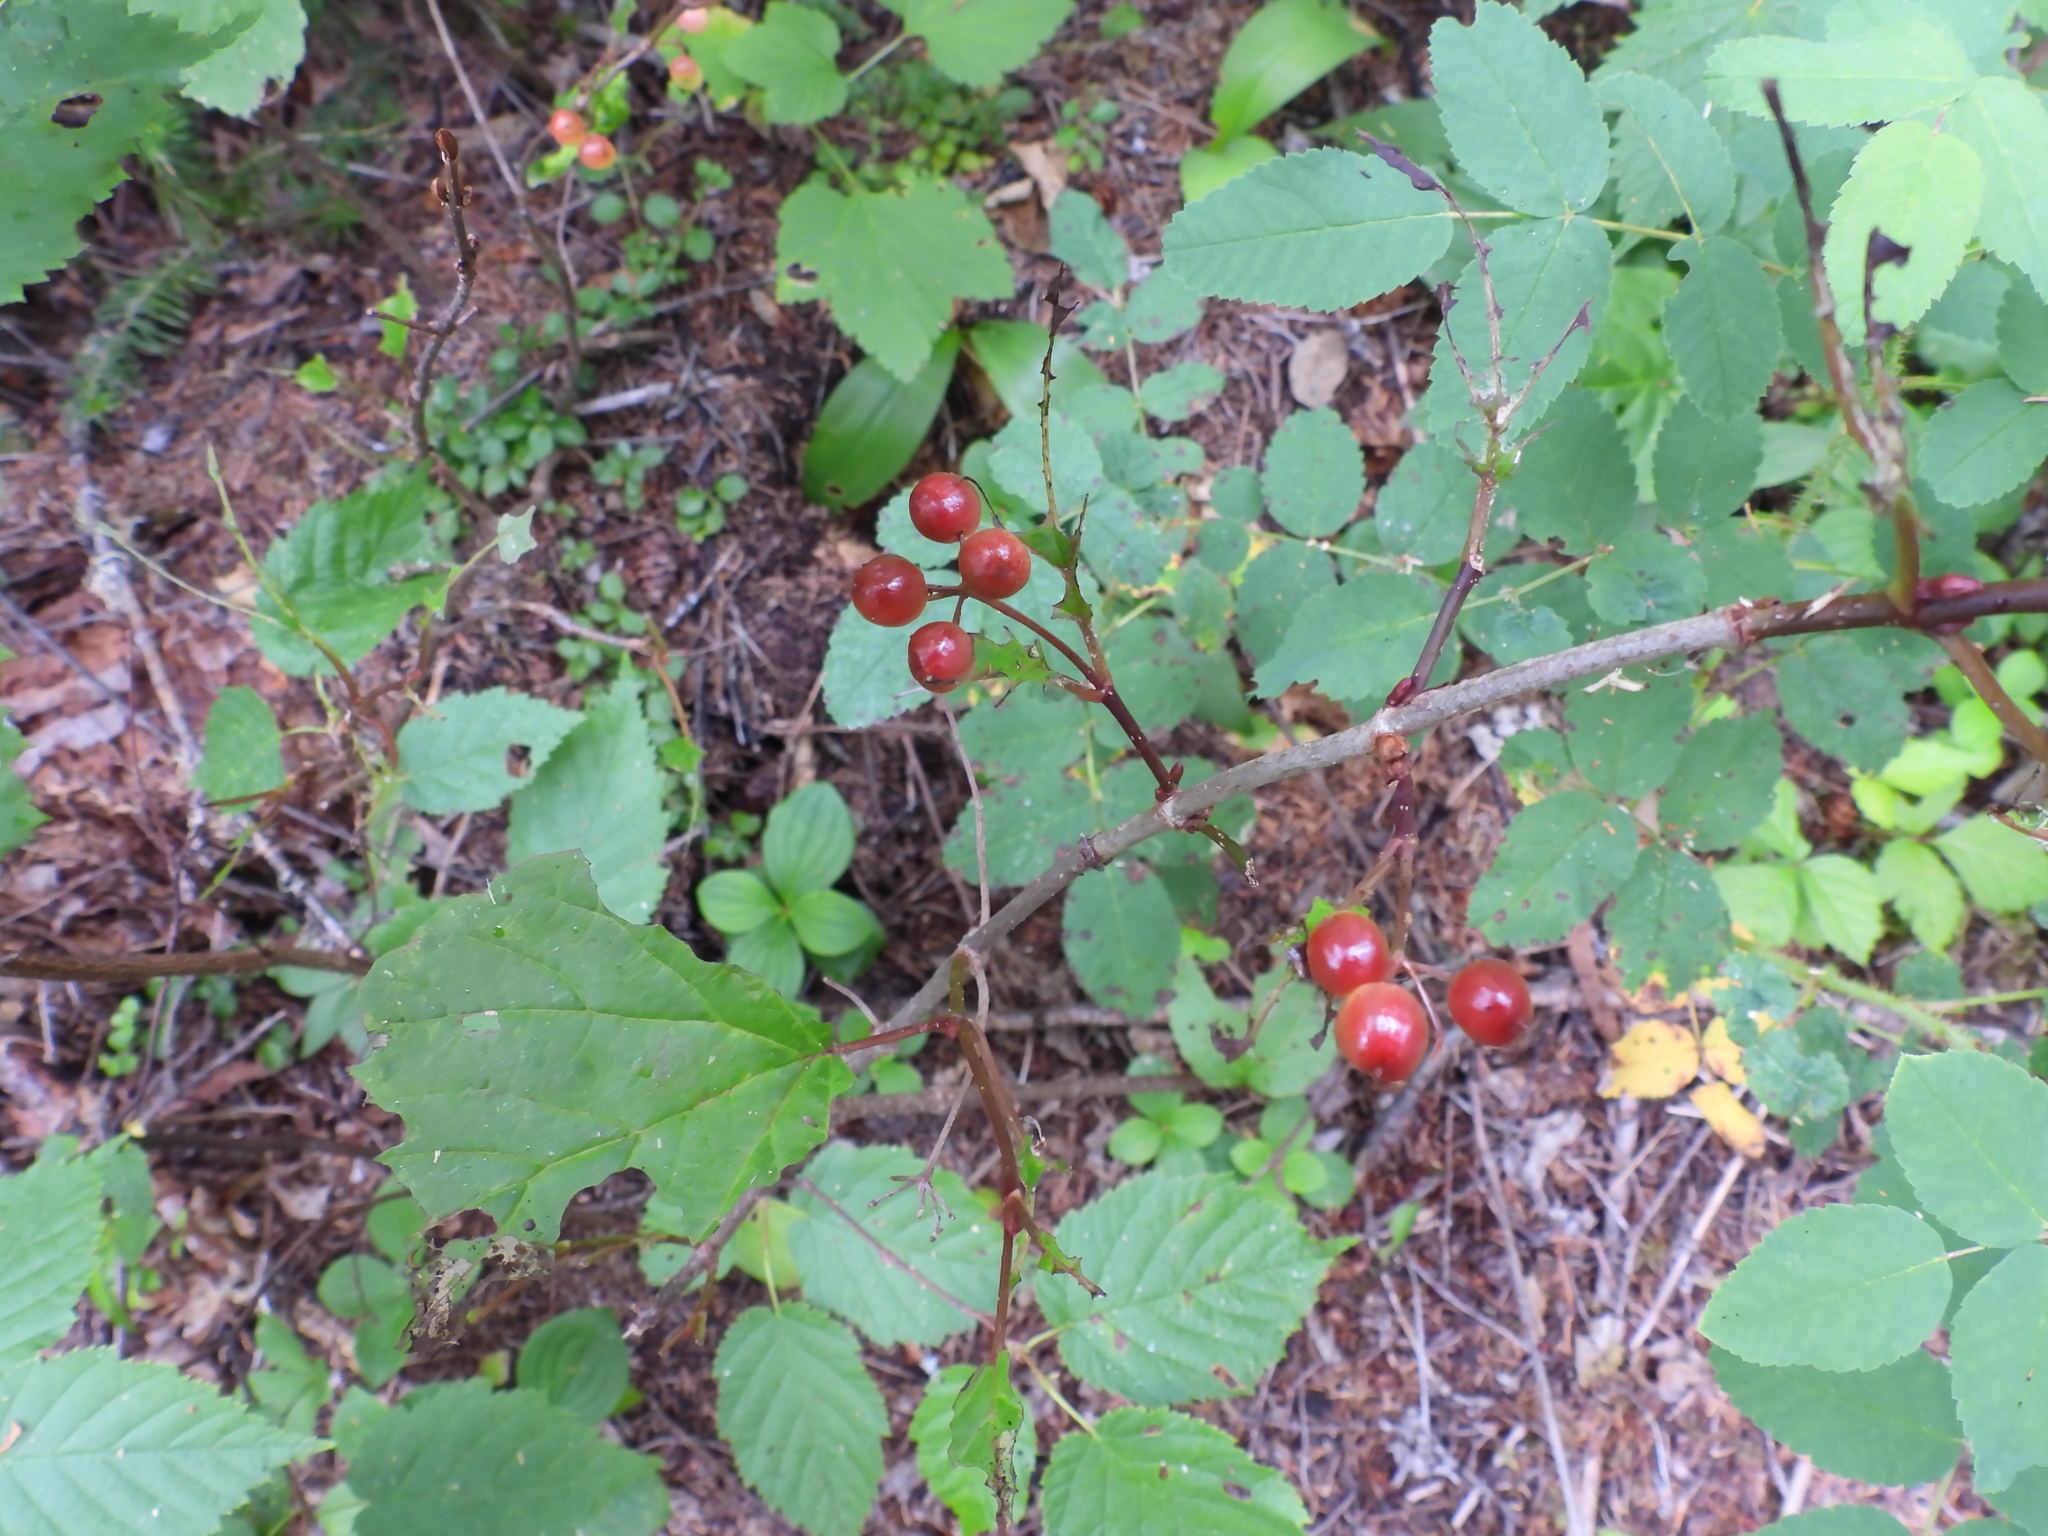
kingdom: Plantae
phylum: Tracheophyta
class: Magnoliopsida
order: Dipsacales
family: Viburnaceae
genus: Viburnum
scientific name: Viburnum edule
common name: Mooseberry
